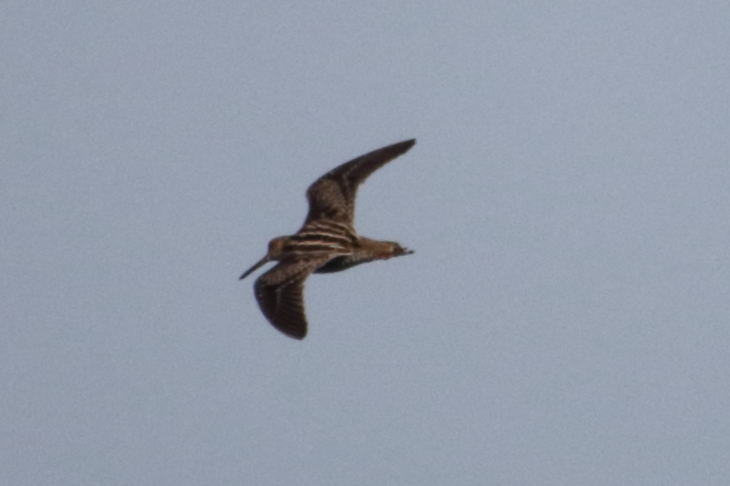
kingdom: Animalia
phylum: Chordata
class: Aves
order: Charadriiformes
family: Scolopacidae
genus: Gallinago
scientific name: Gallinago delicata
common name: Wilson's snipe
